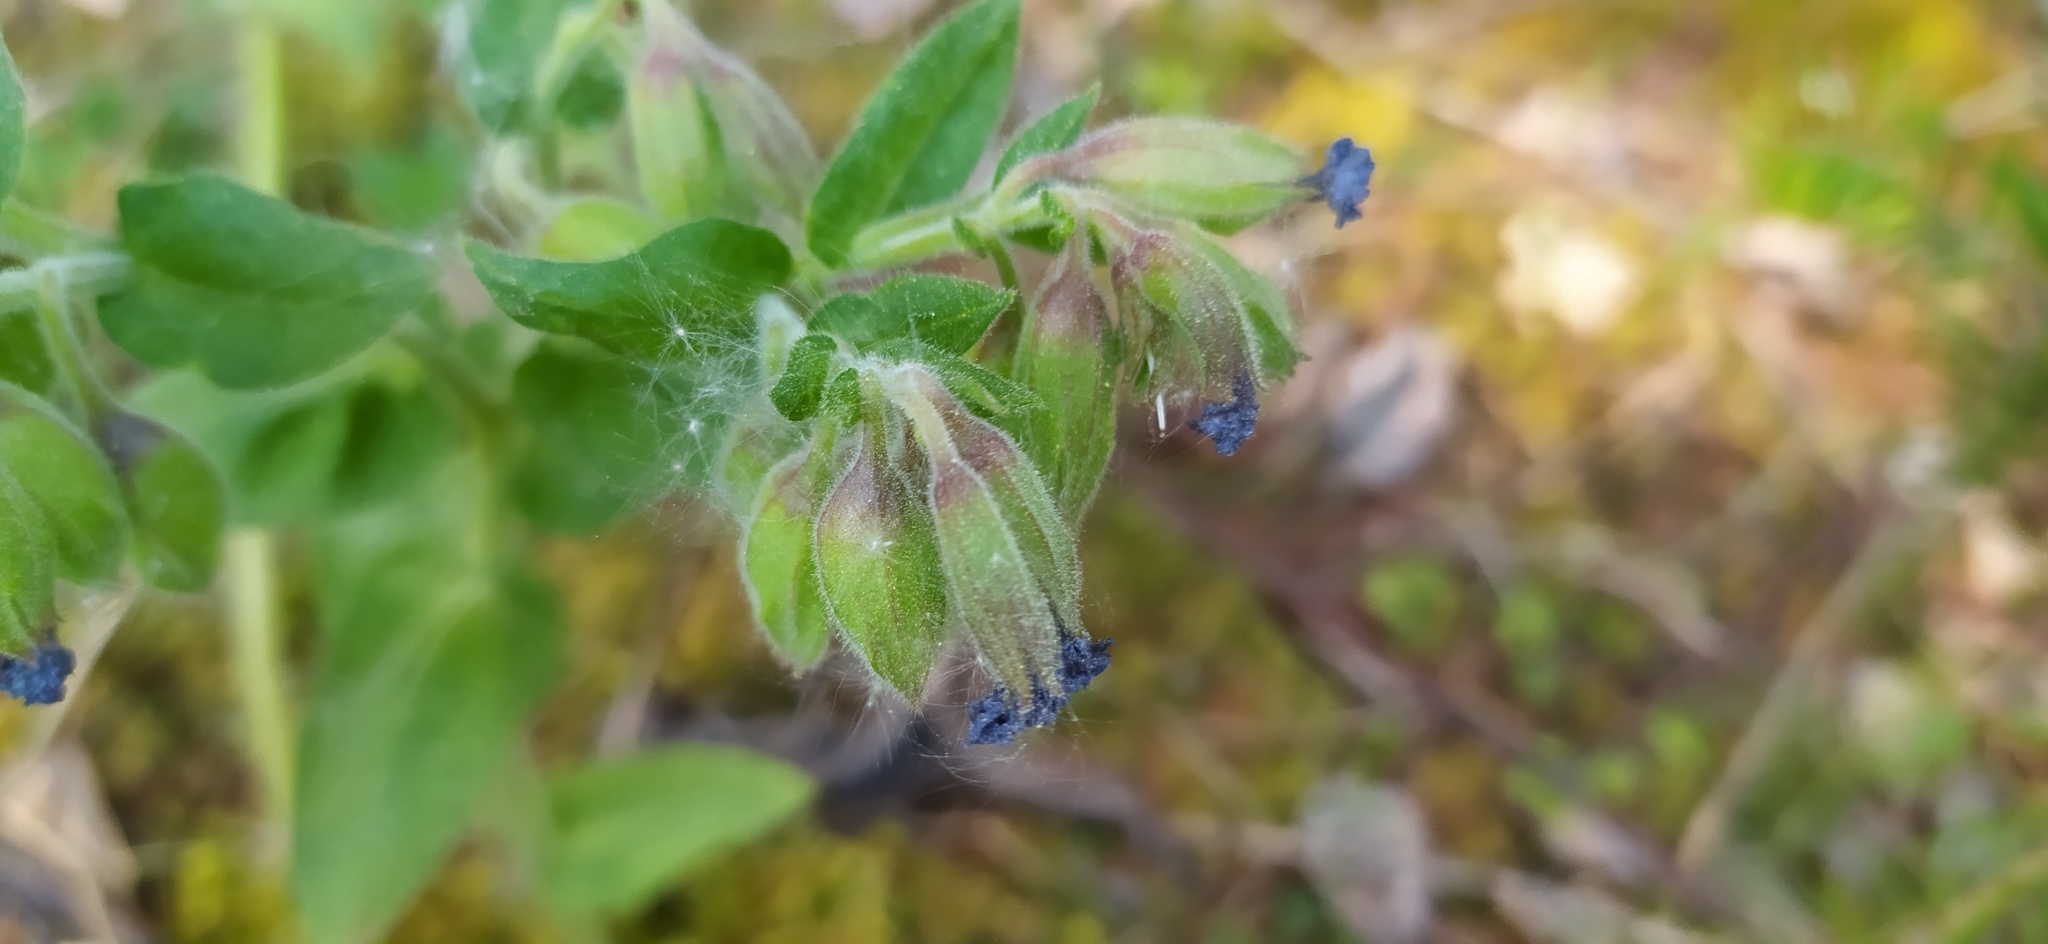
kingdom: Plantae
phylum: Tracheophyta
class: Magnoliopsida
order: Boraginales
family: Boraginaceae
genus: Pulmonaria
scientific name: Pulmonaria mollis
